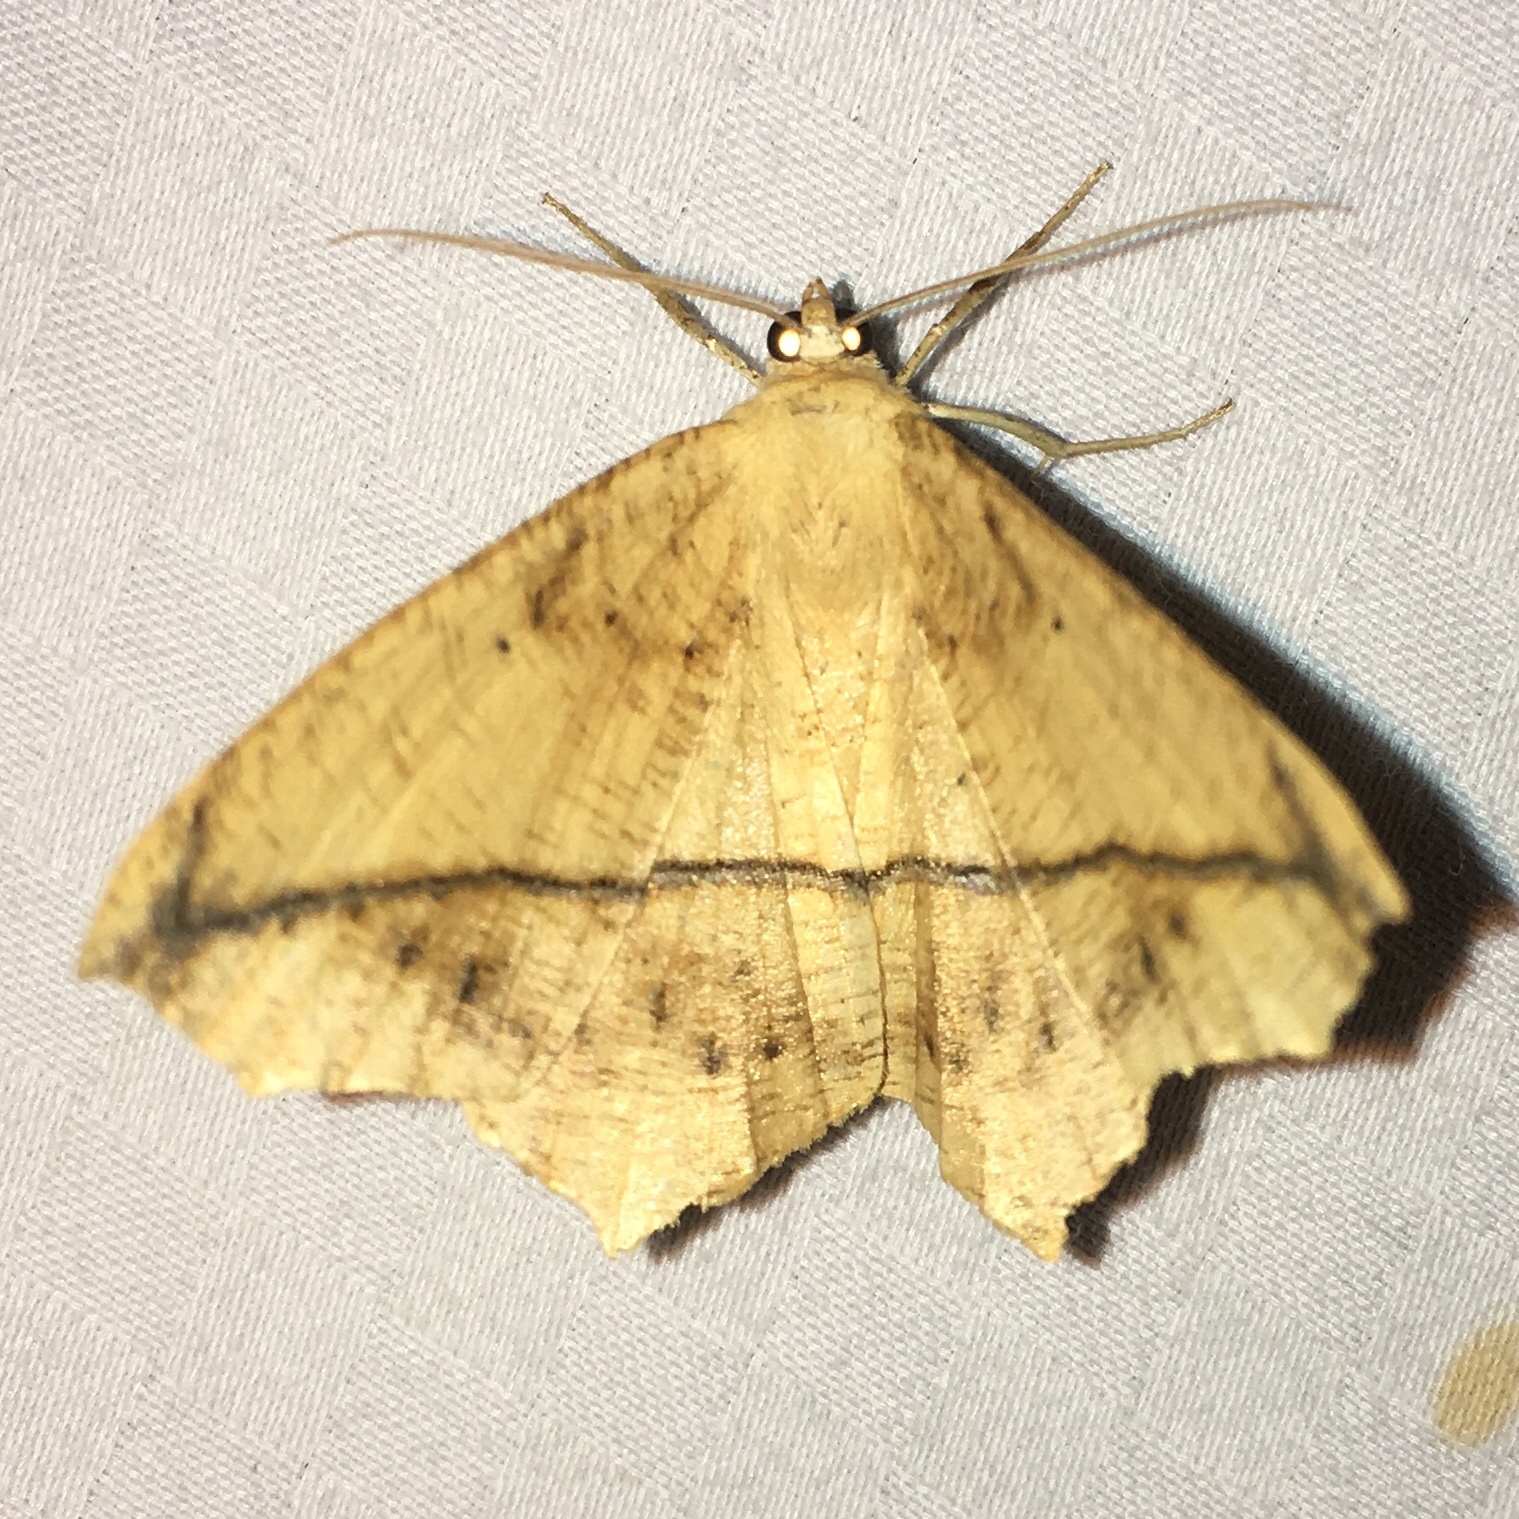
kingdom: Animalia
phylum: Arthropoda
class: Insecta
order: Lepidoptera
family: Geometridae
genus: Prochoerodes
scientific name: Prochoerodes lineola
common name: Large maple spanworm
